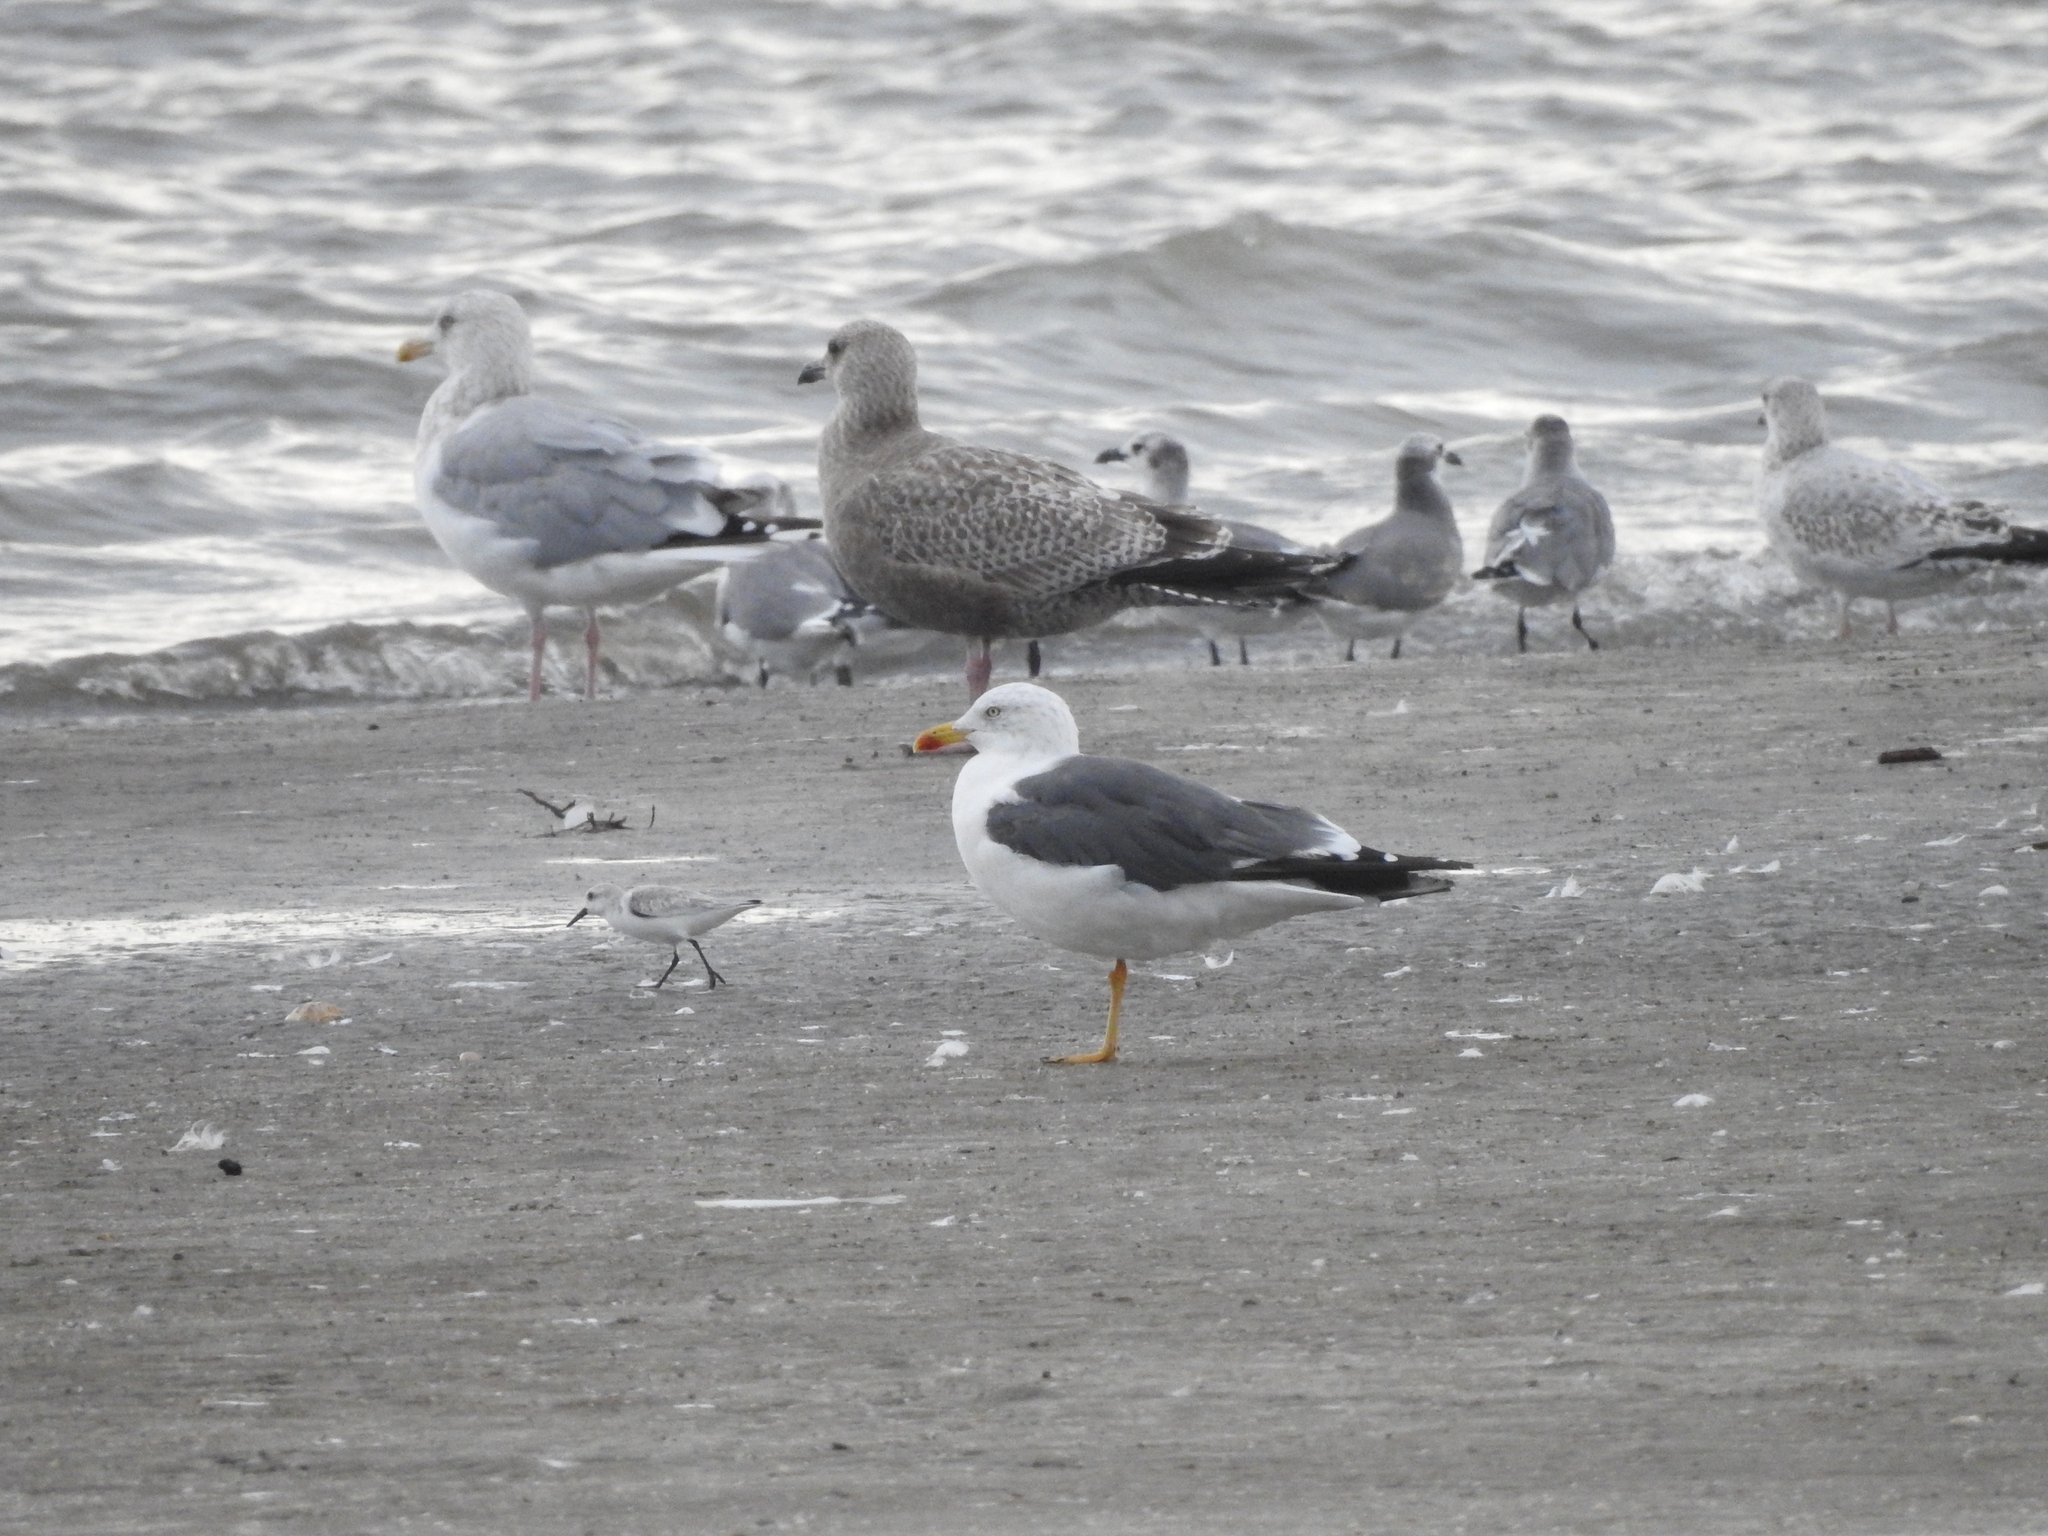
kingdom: Animalia
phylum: Chordata
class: Aves
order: Charadriiformes
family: Laridae
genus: Larus
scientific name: Larus fuscus
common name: Lesser black-backed gull
